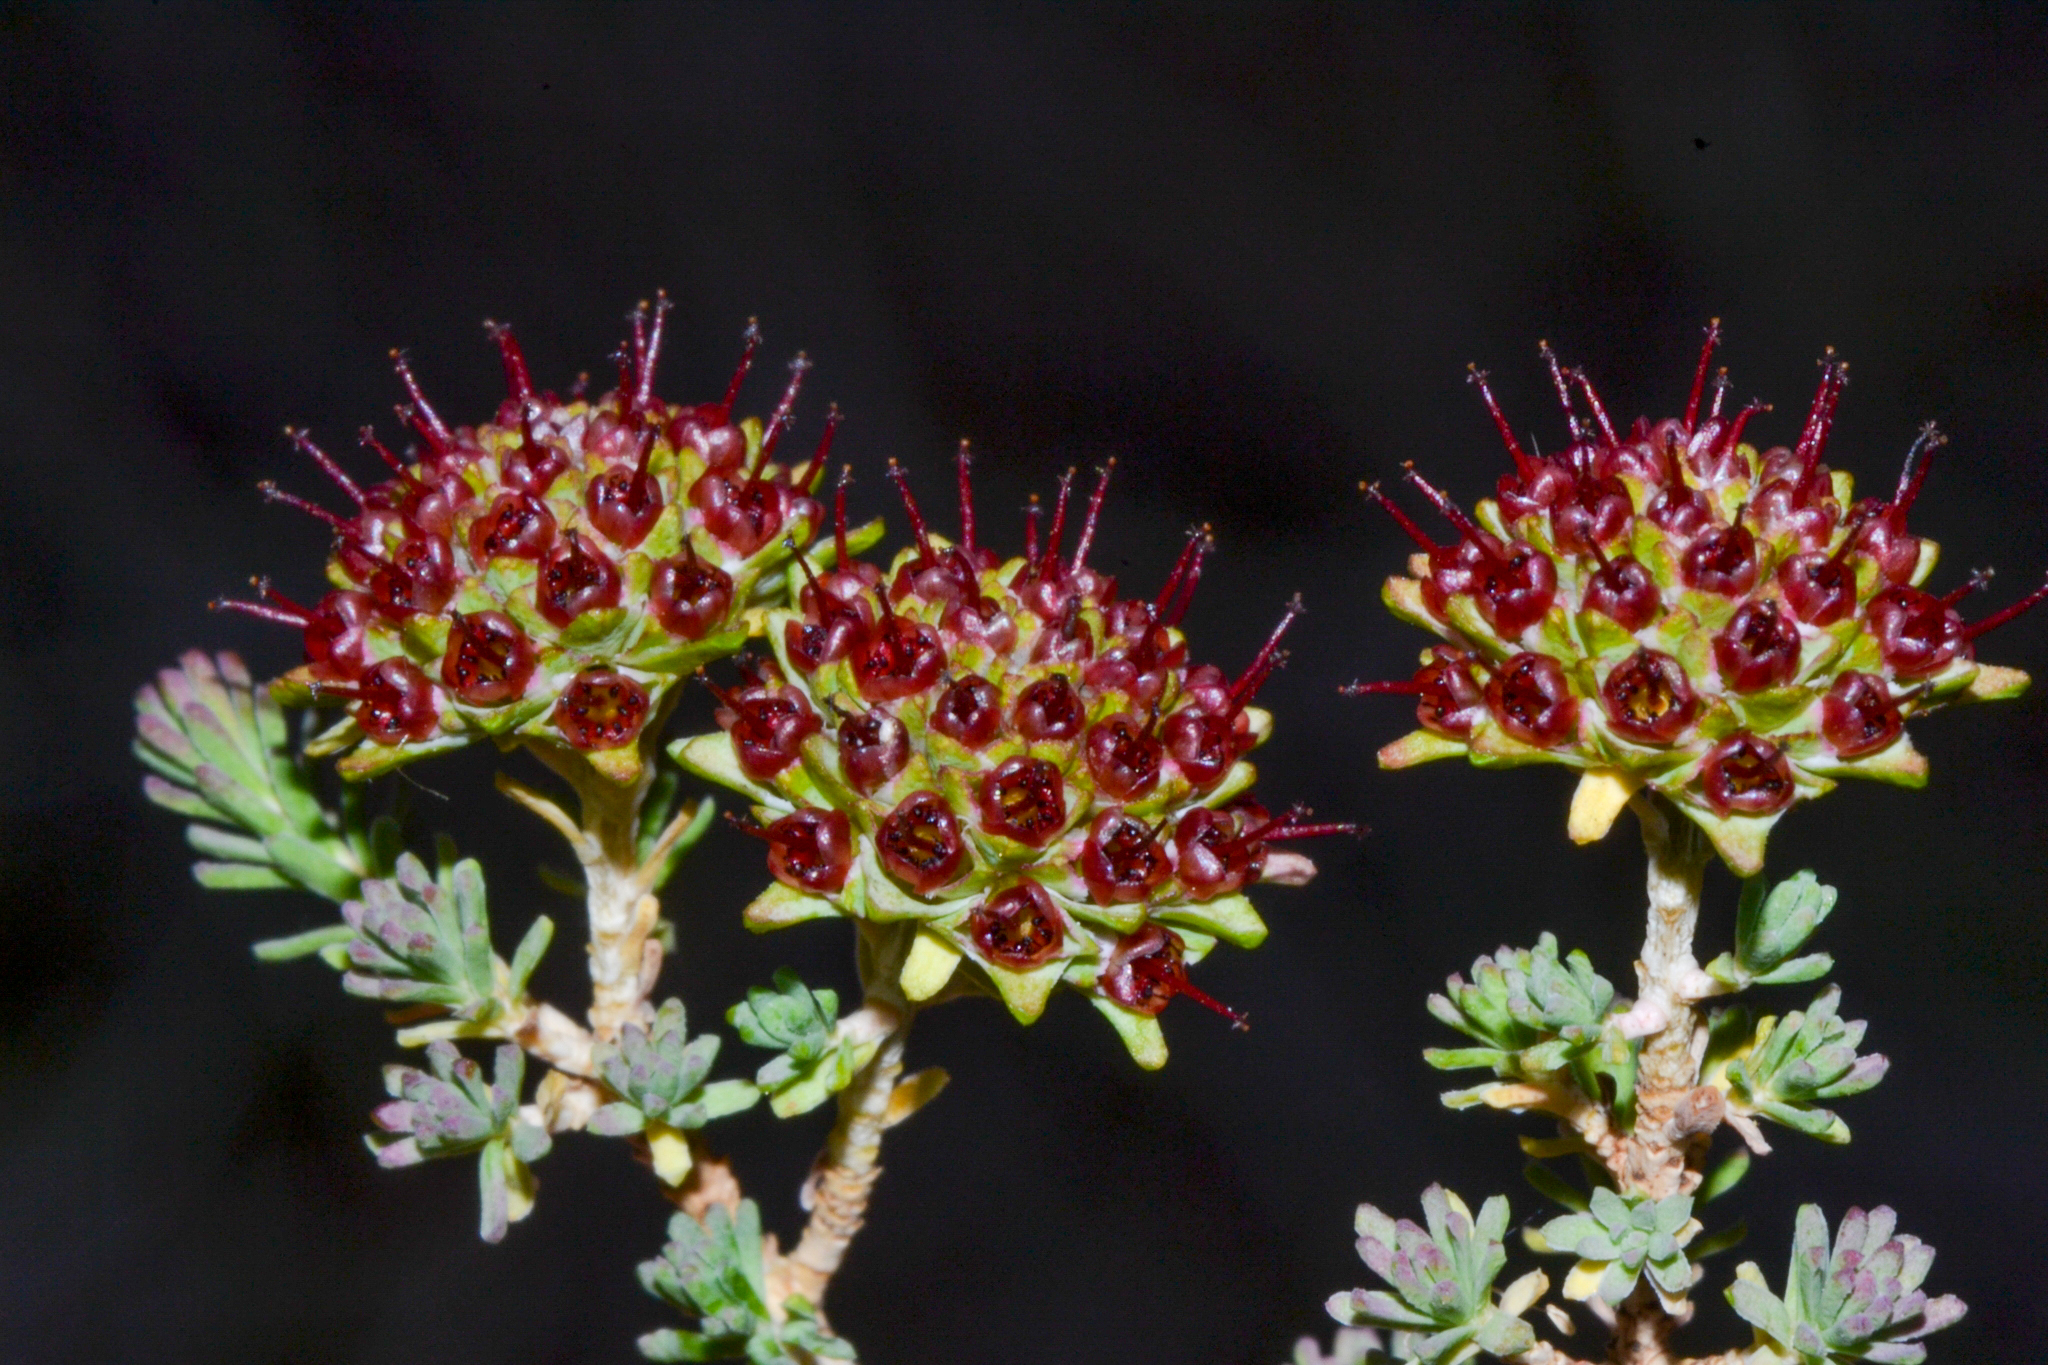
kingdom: Plantae
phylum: Tracheophyta
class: Magnoliopsida
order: Myrtales
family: Myrtaceae
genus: Darwinia
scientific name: Darwinia
